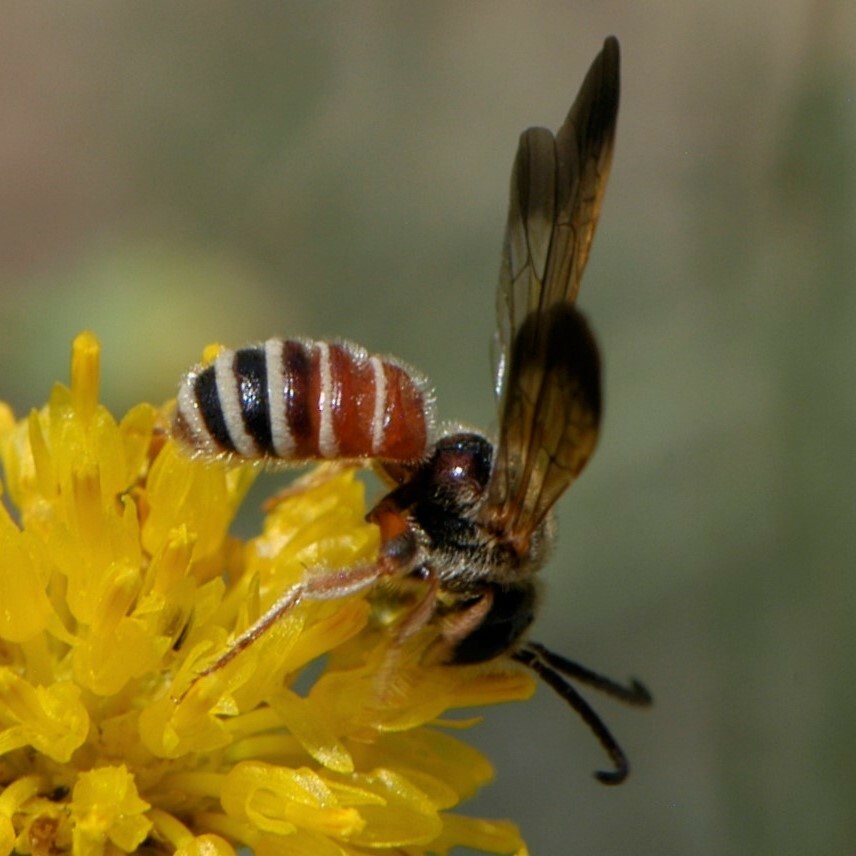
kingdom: Animalia
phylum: Arthropoda
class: Insecta
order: Hymenoptera
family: Halictidae
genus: Dieunomia
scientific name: Dieunomia nevadensis
